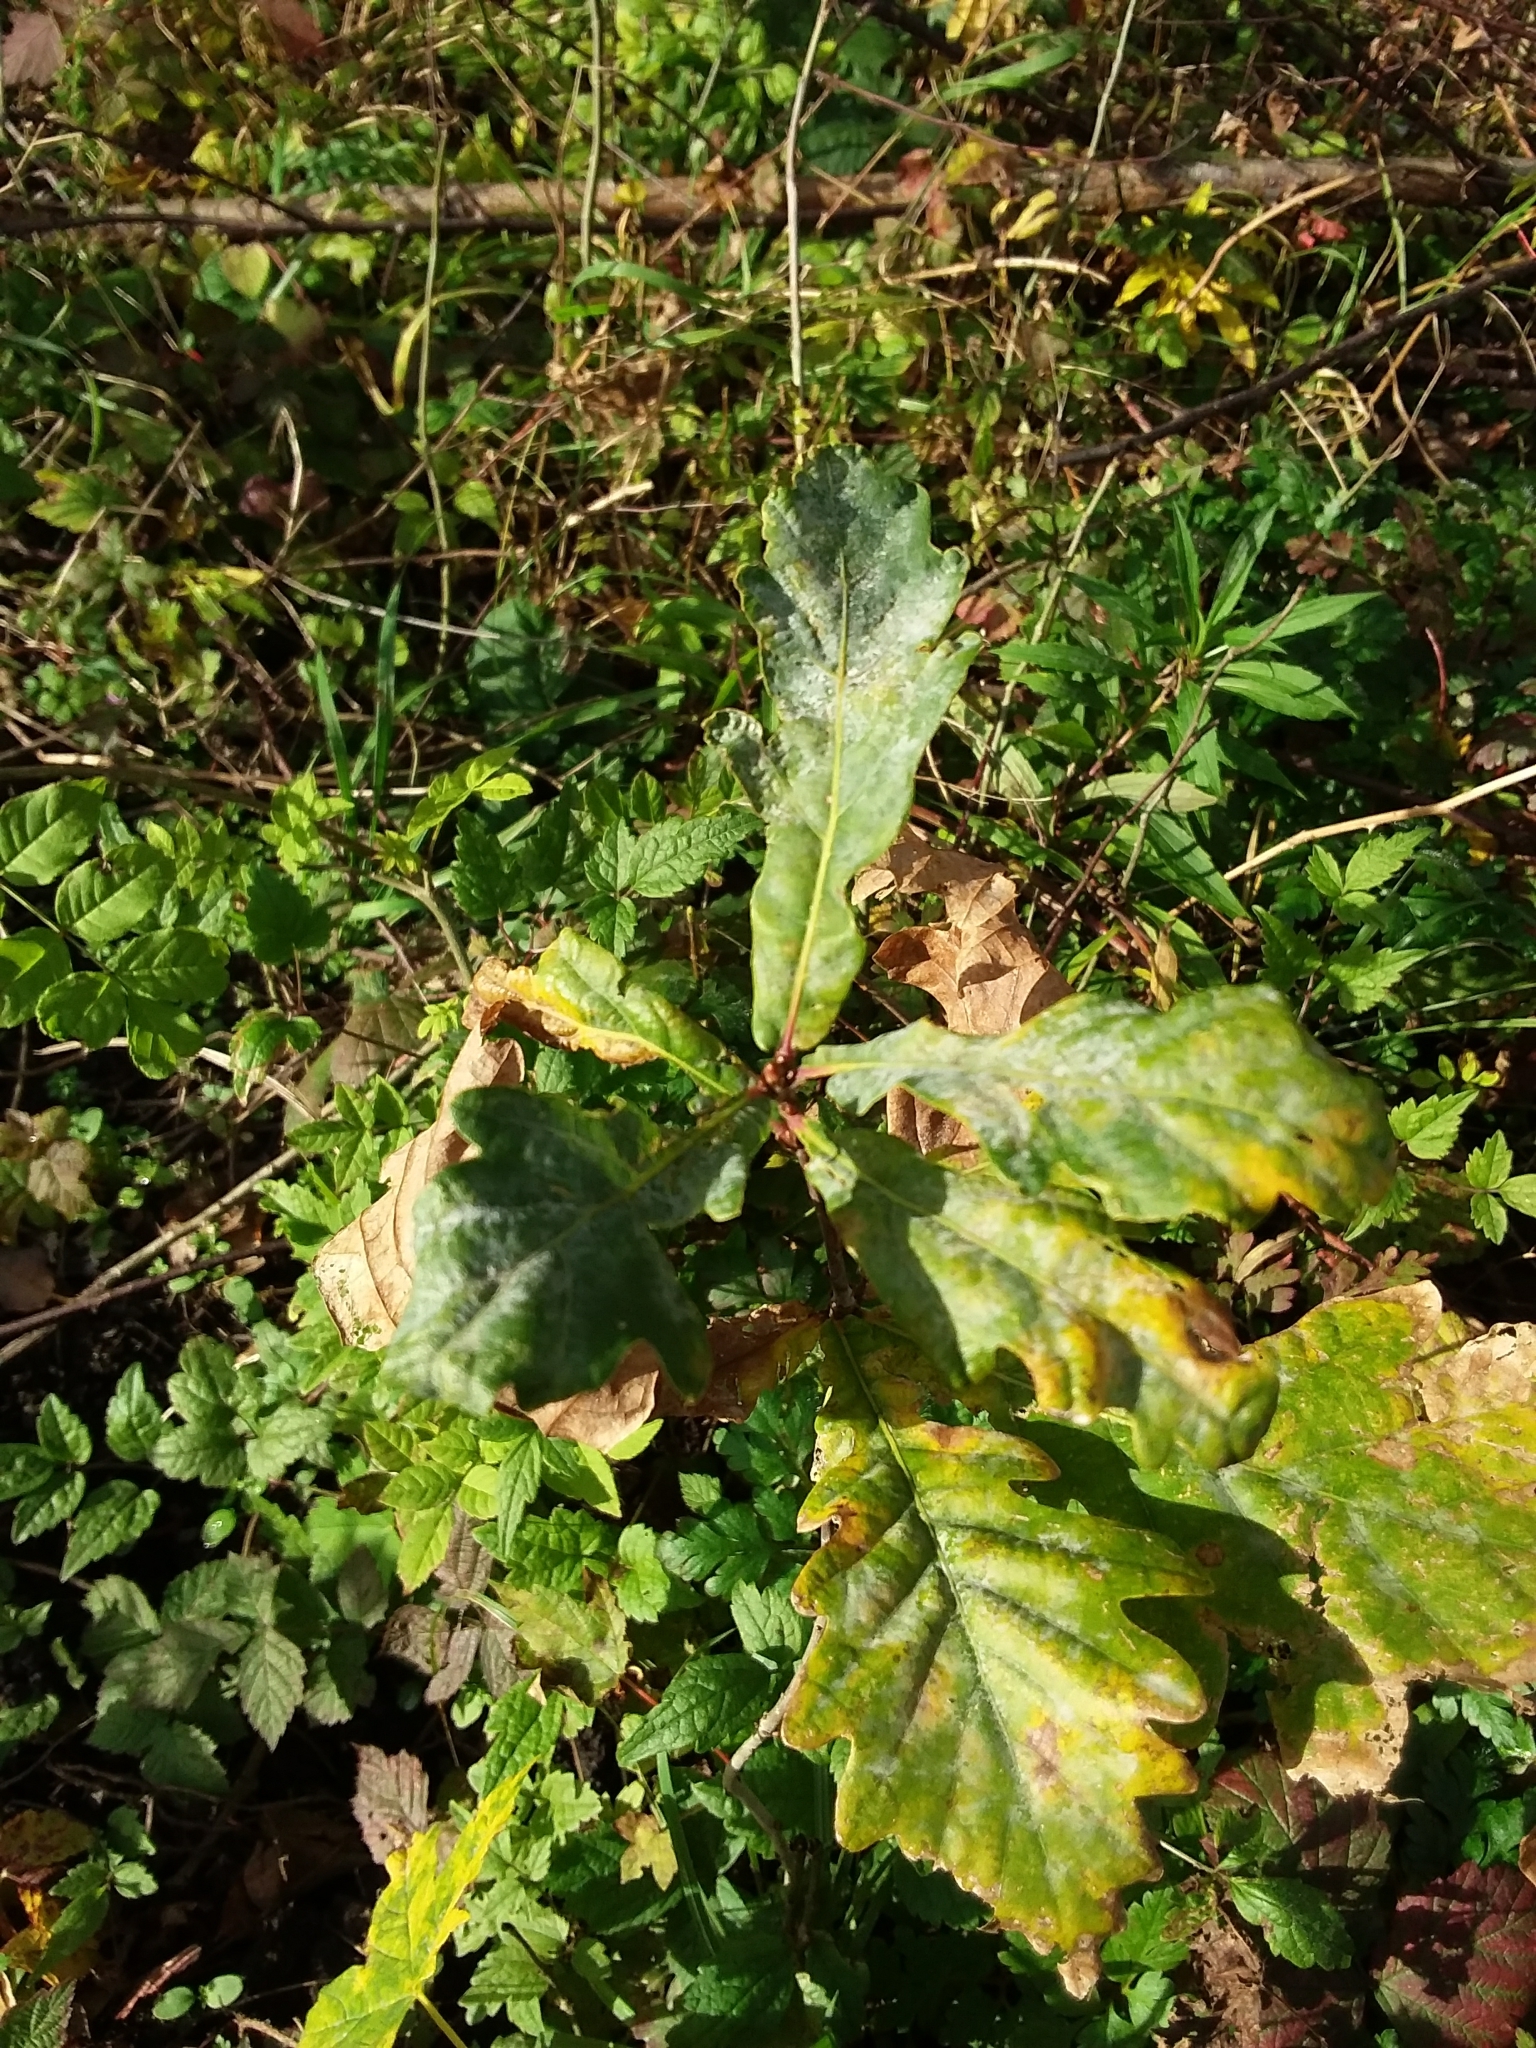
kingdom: Fungi
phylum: Ascomycota
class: Leotiomycetes
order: Helotiales
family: Erysiphaceae
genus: Erysiphe
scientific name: Erysiphe alphitoides
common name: Oak mildew
